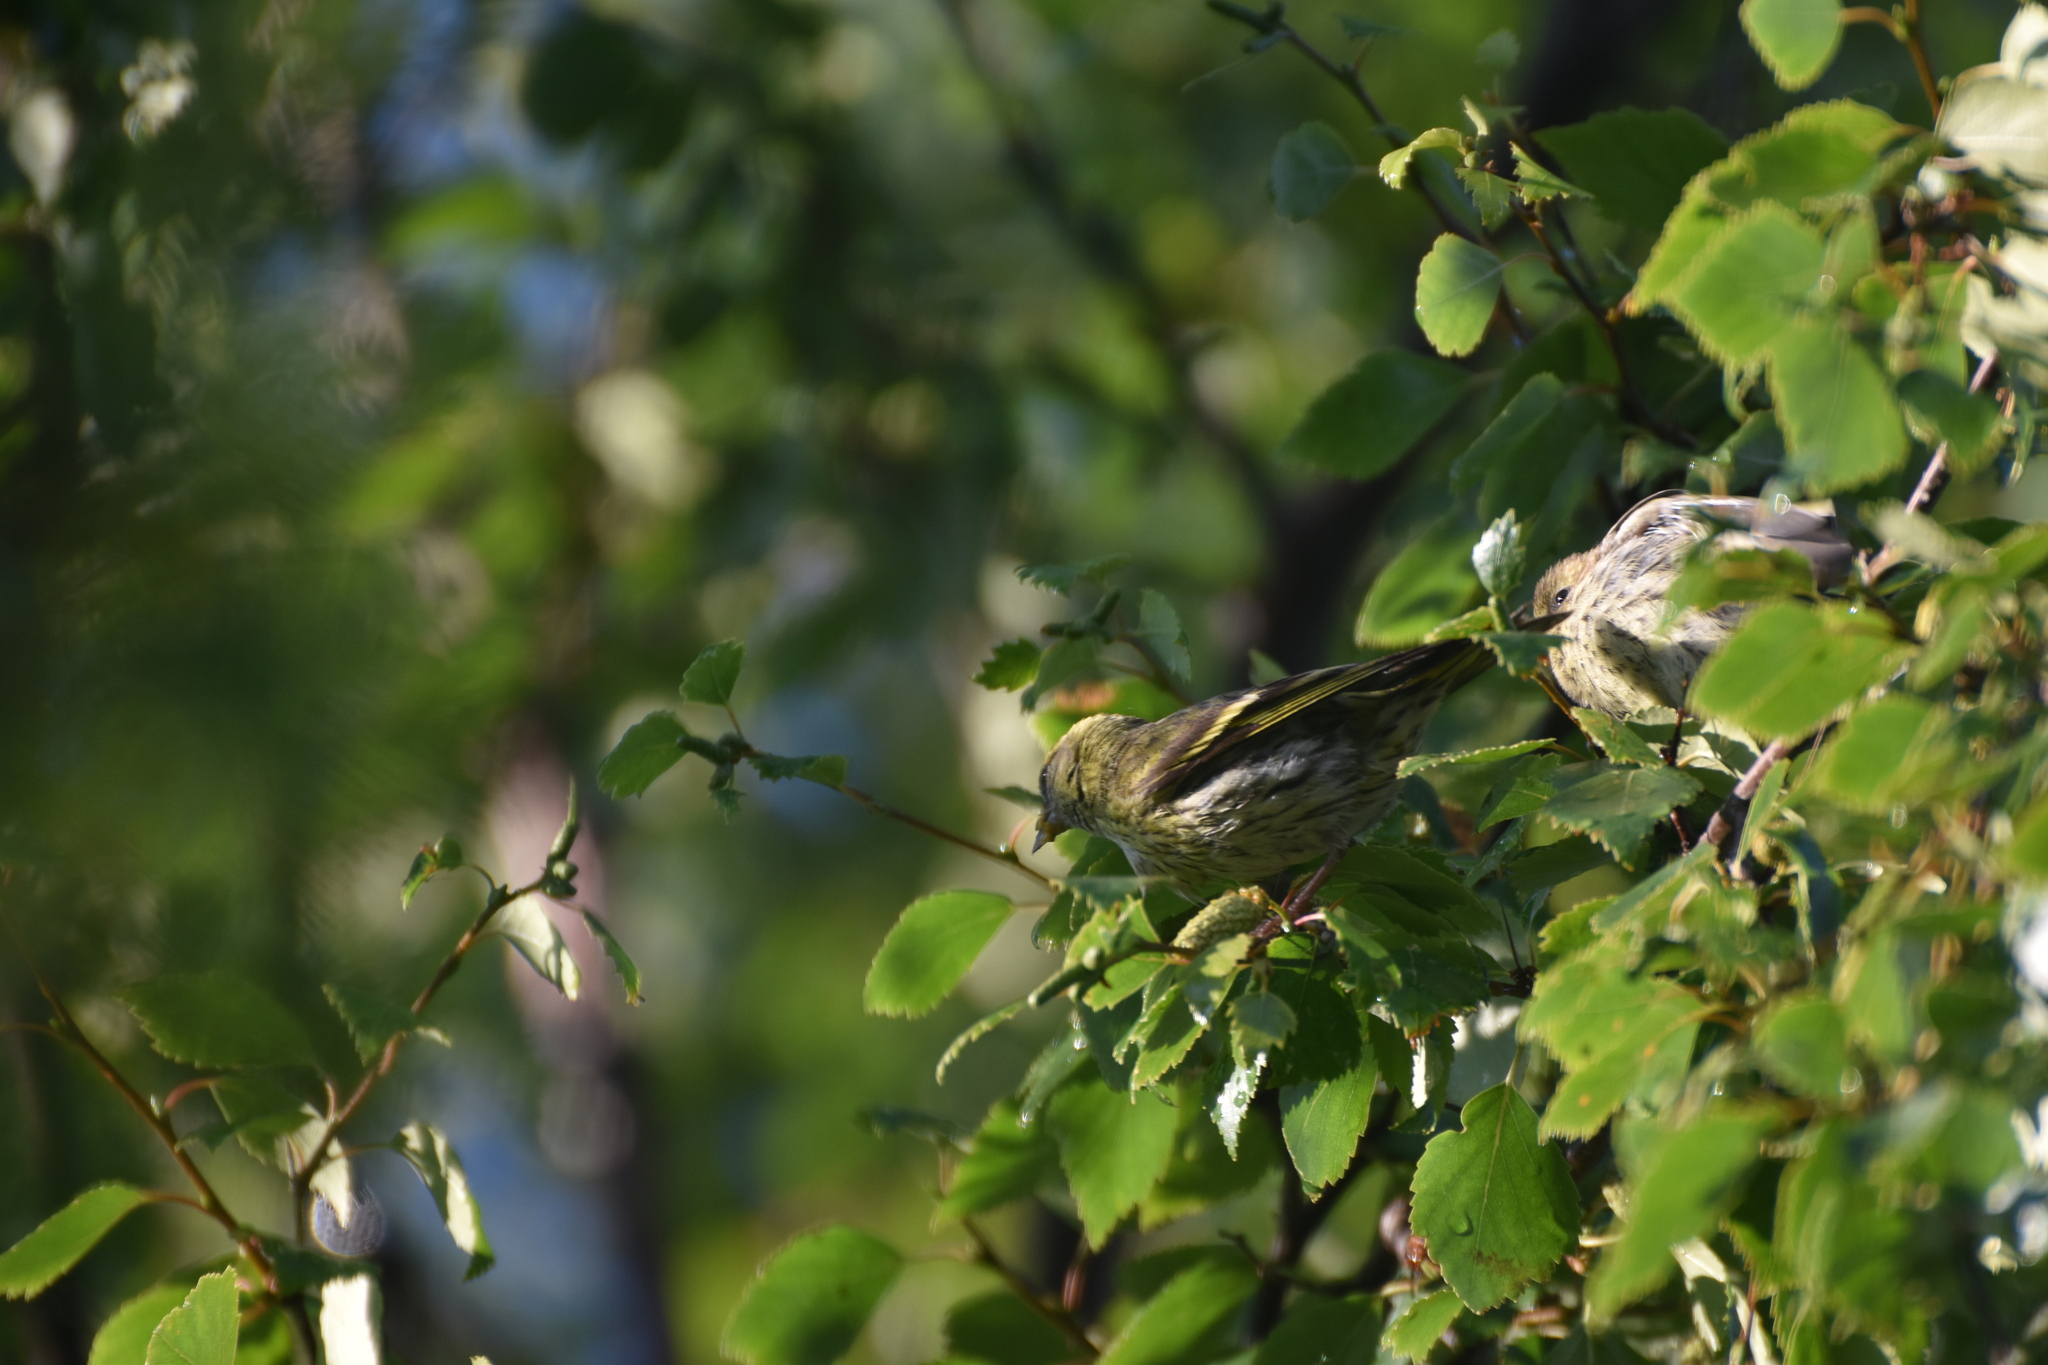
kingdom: Animalia
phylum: Chordata
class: Aves
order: Passeriformes
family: Fringillidae
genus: Spinus
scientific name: Spinus spinus
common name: Eurasian siskin
